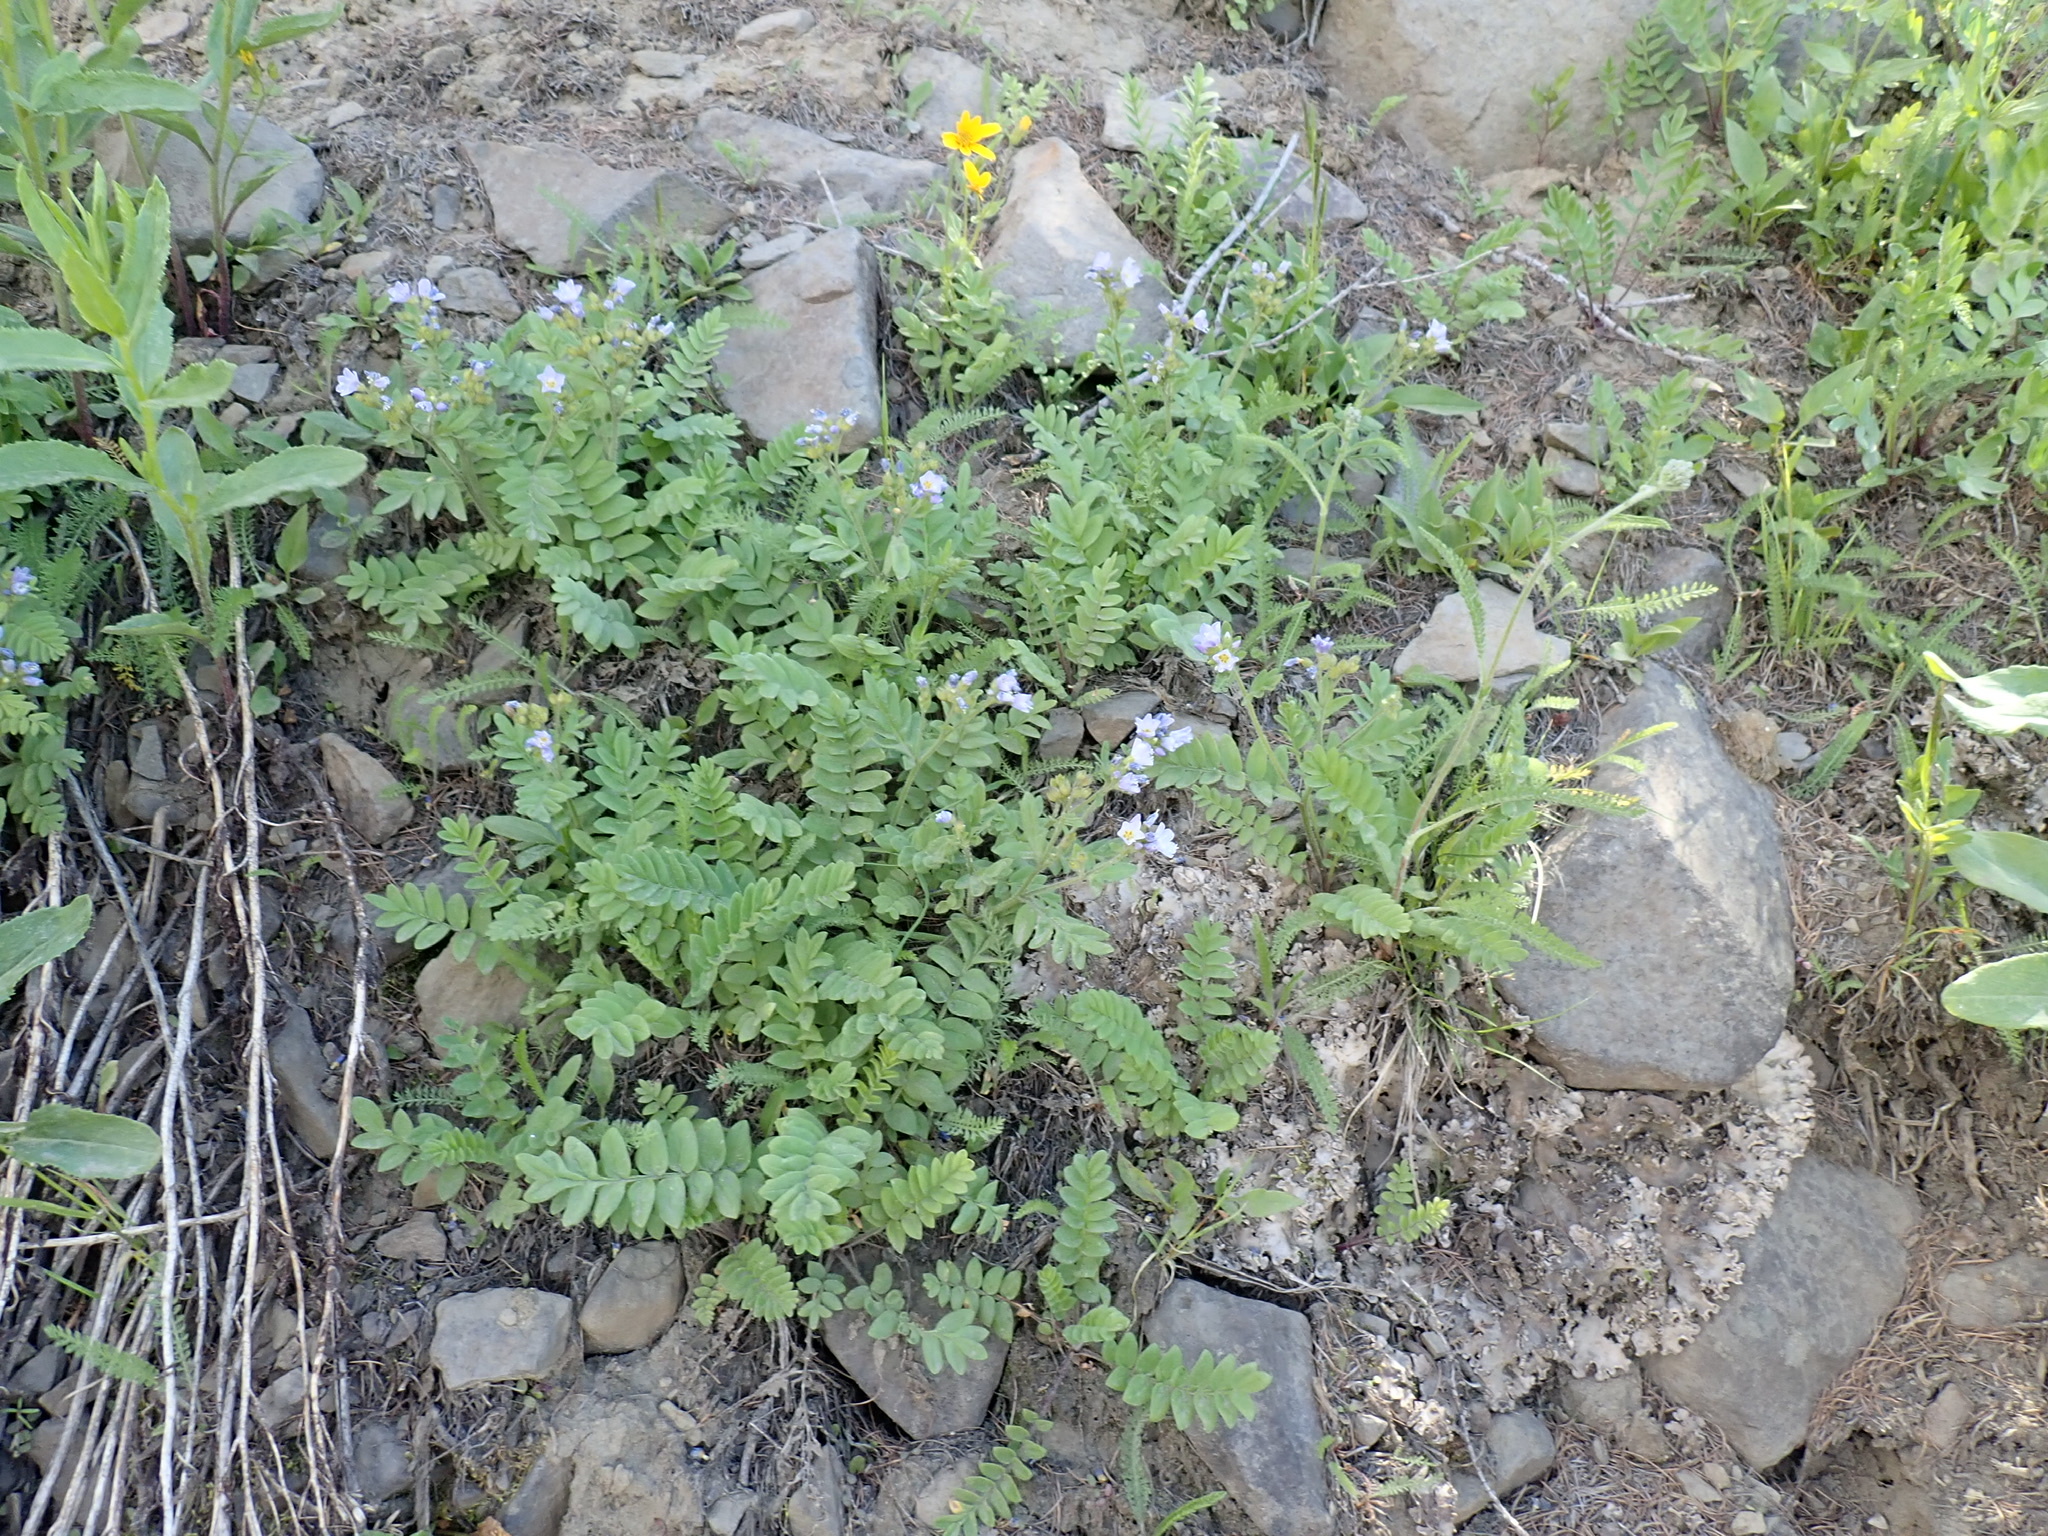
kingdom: Plantae
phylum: Tracheophyta
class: Magnoliopsida
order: Ericales
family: Polemoniaceae
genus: Polemonium
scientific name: Polemonium californicum
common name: California jacob's ladder
